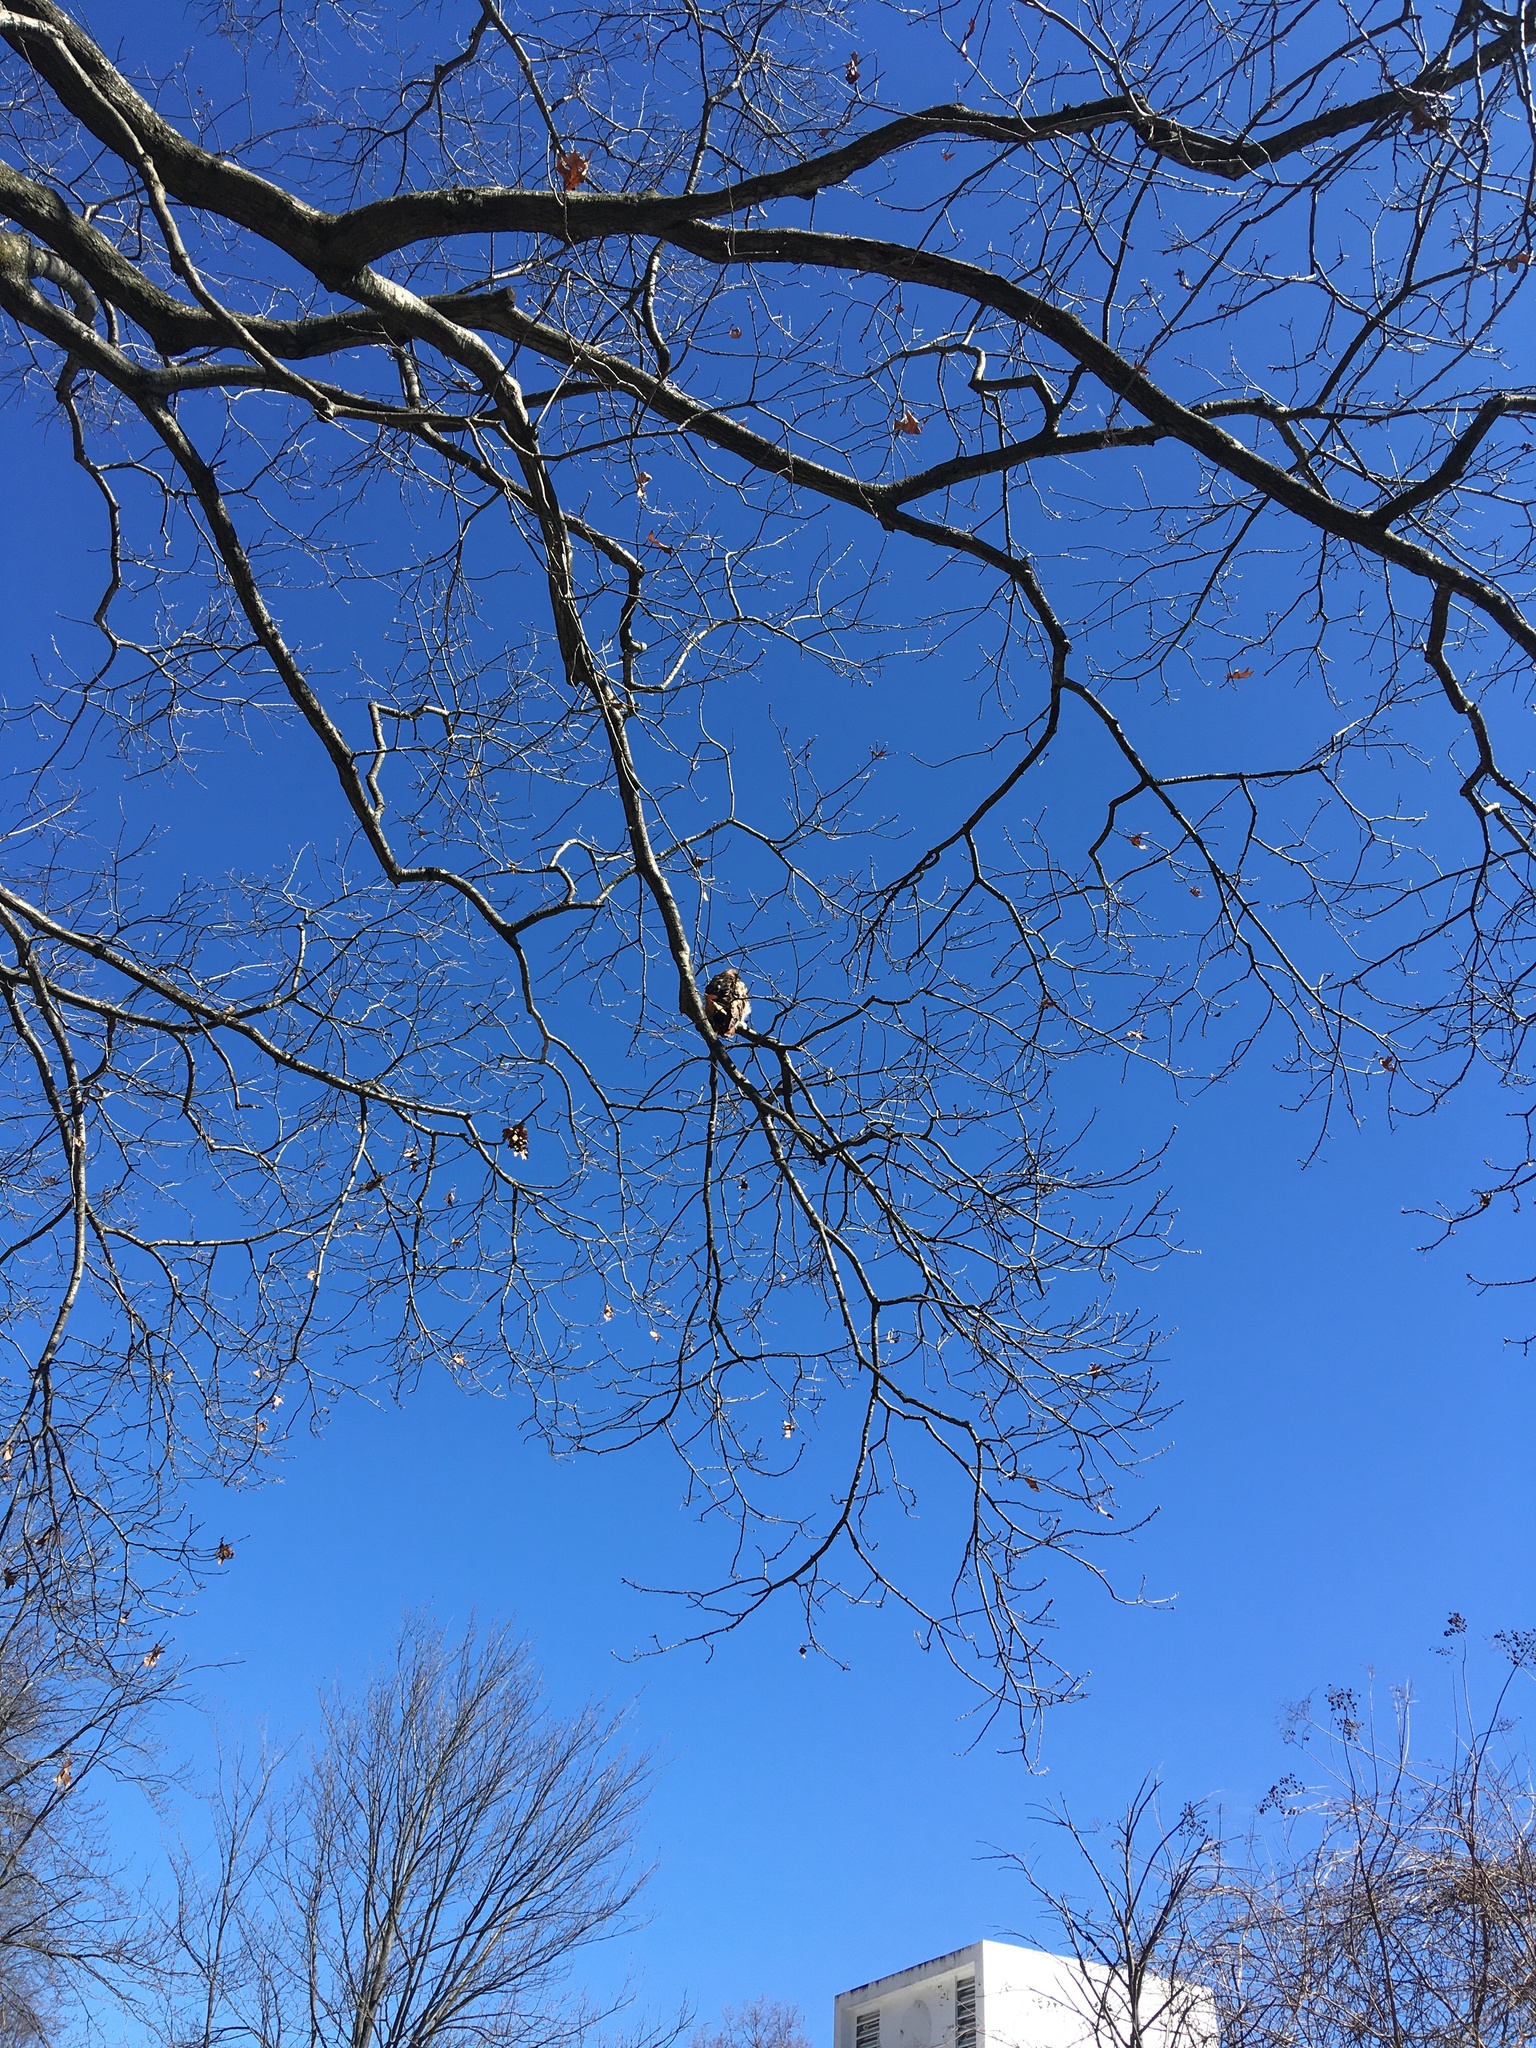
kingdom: Animalia
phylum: Chordata
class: Aves
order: Accipitriformes
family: Accipitridae
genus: Buteo
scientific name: Buteo jamaicensis
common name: Red-tailed hawk
